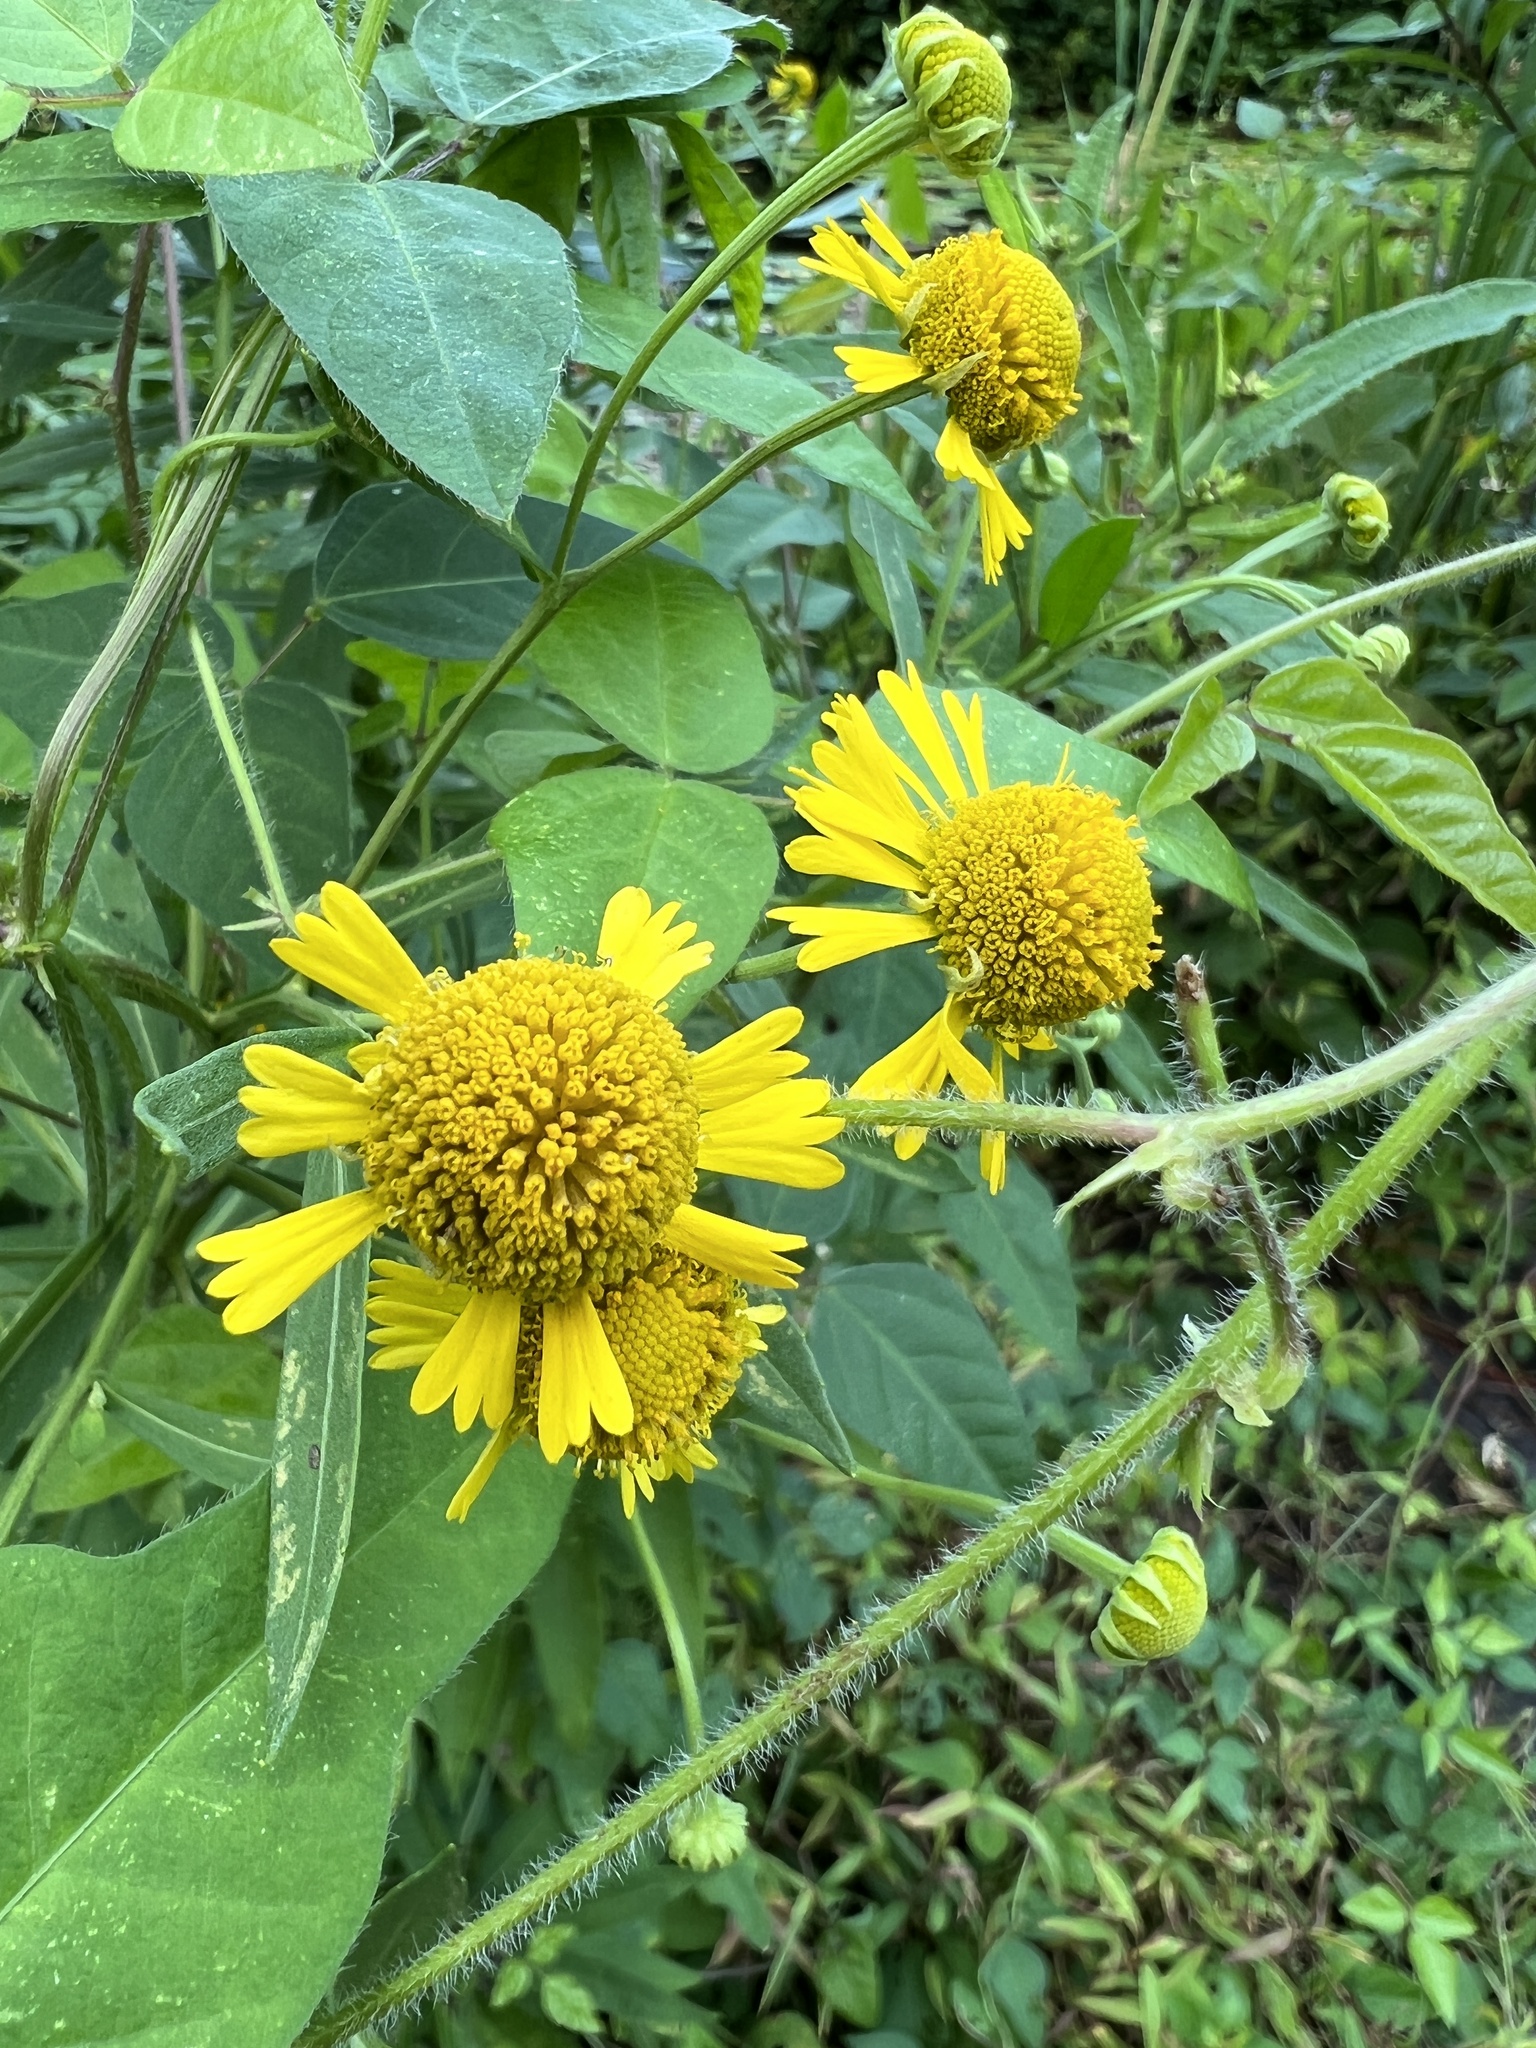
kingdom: Plantae
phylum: Tracheophyta
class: Magnoliopsida
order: Asterales
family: Asteraceae
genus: Helenium
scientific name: Helenium autumnale
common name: Sneezeweed
